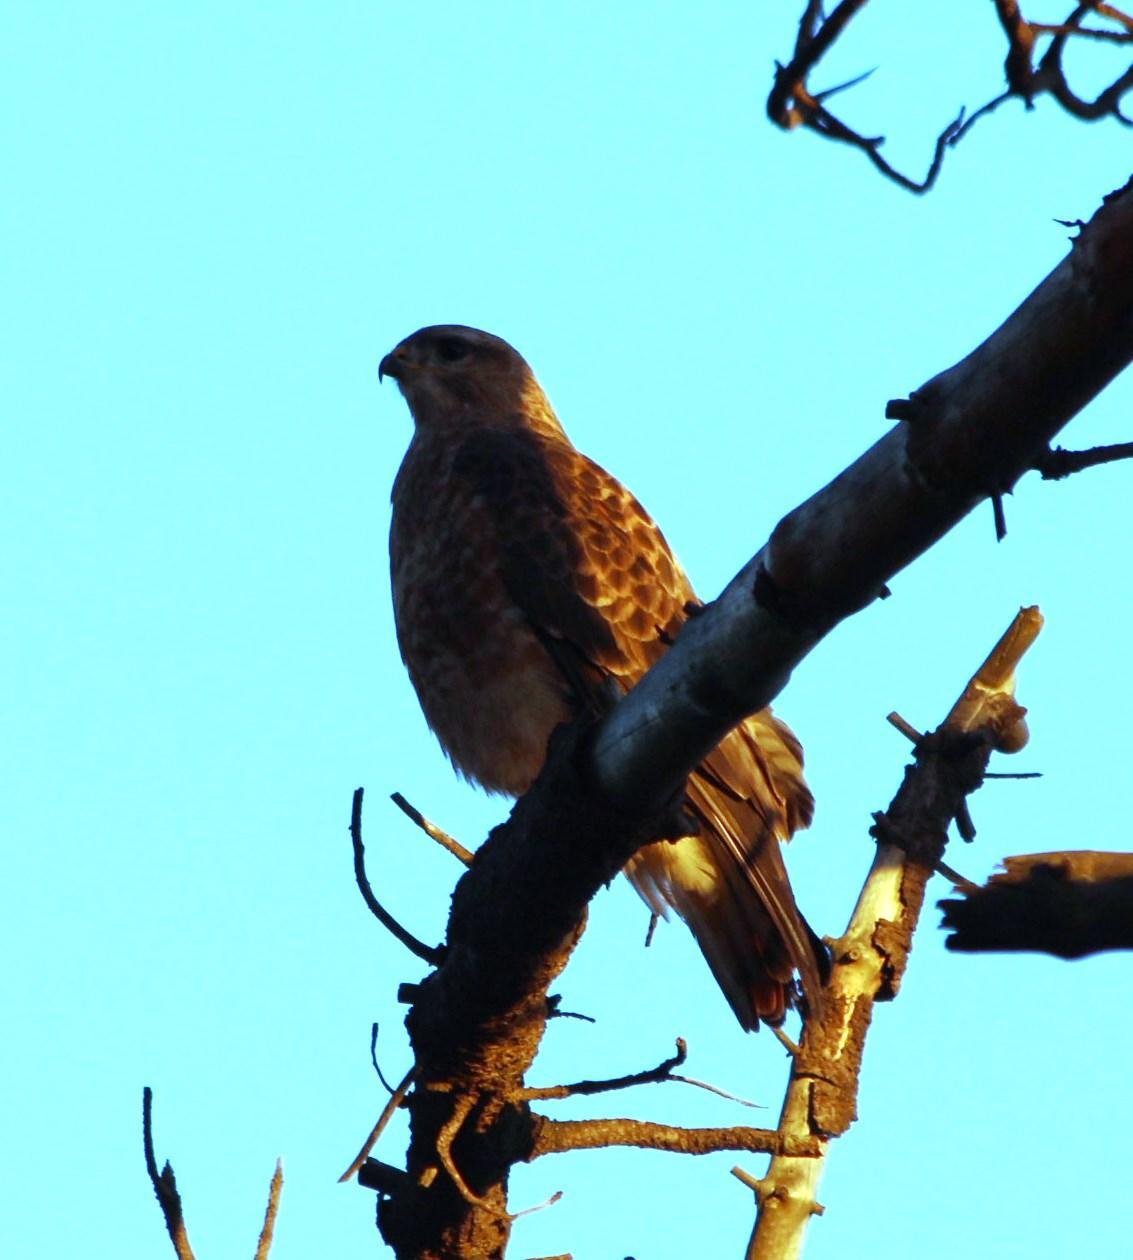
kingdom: Animalia
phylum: Chordata
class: Aves
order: Accipitriformes
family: Accipitridae
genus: Buteo
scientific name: Buteo buteo
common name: Common buzzard
